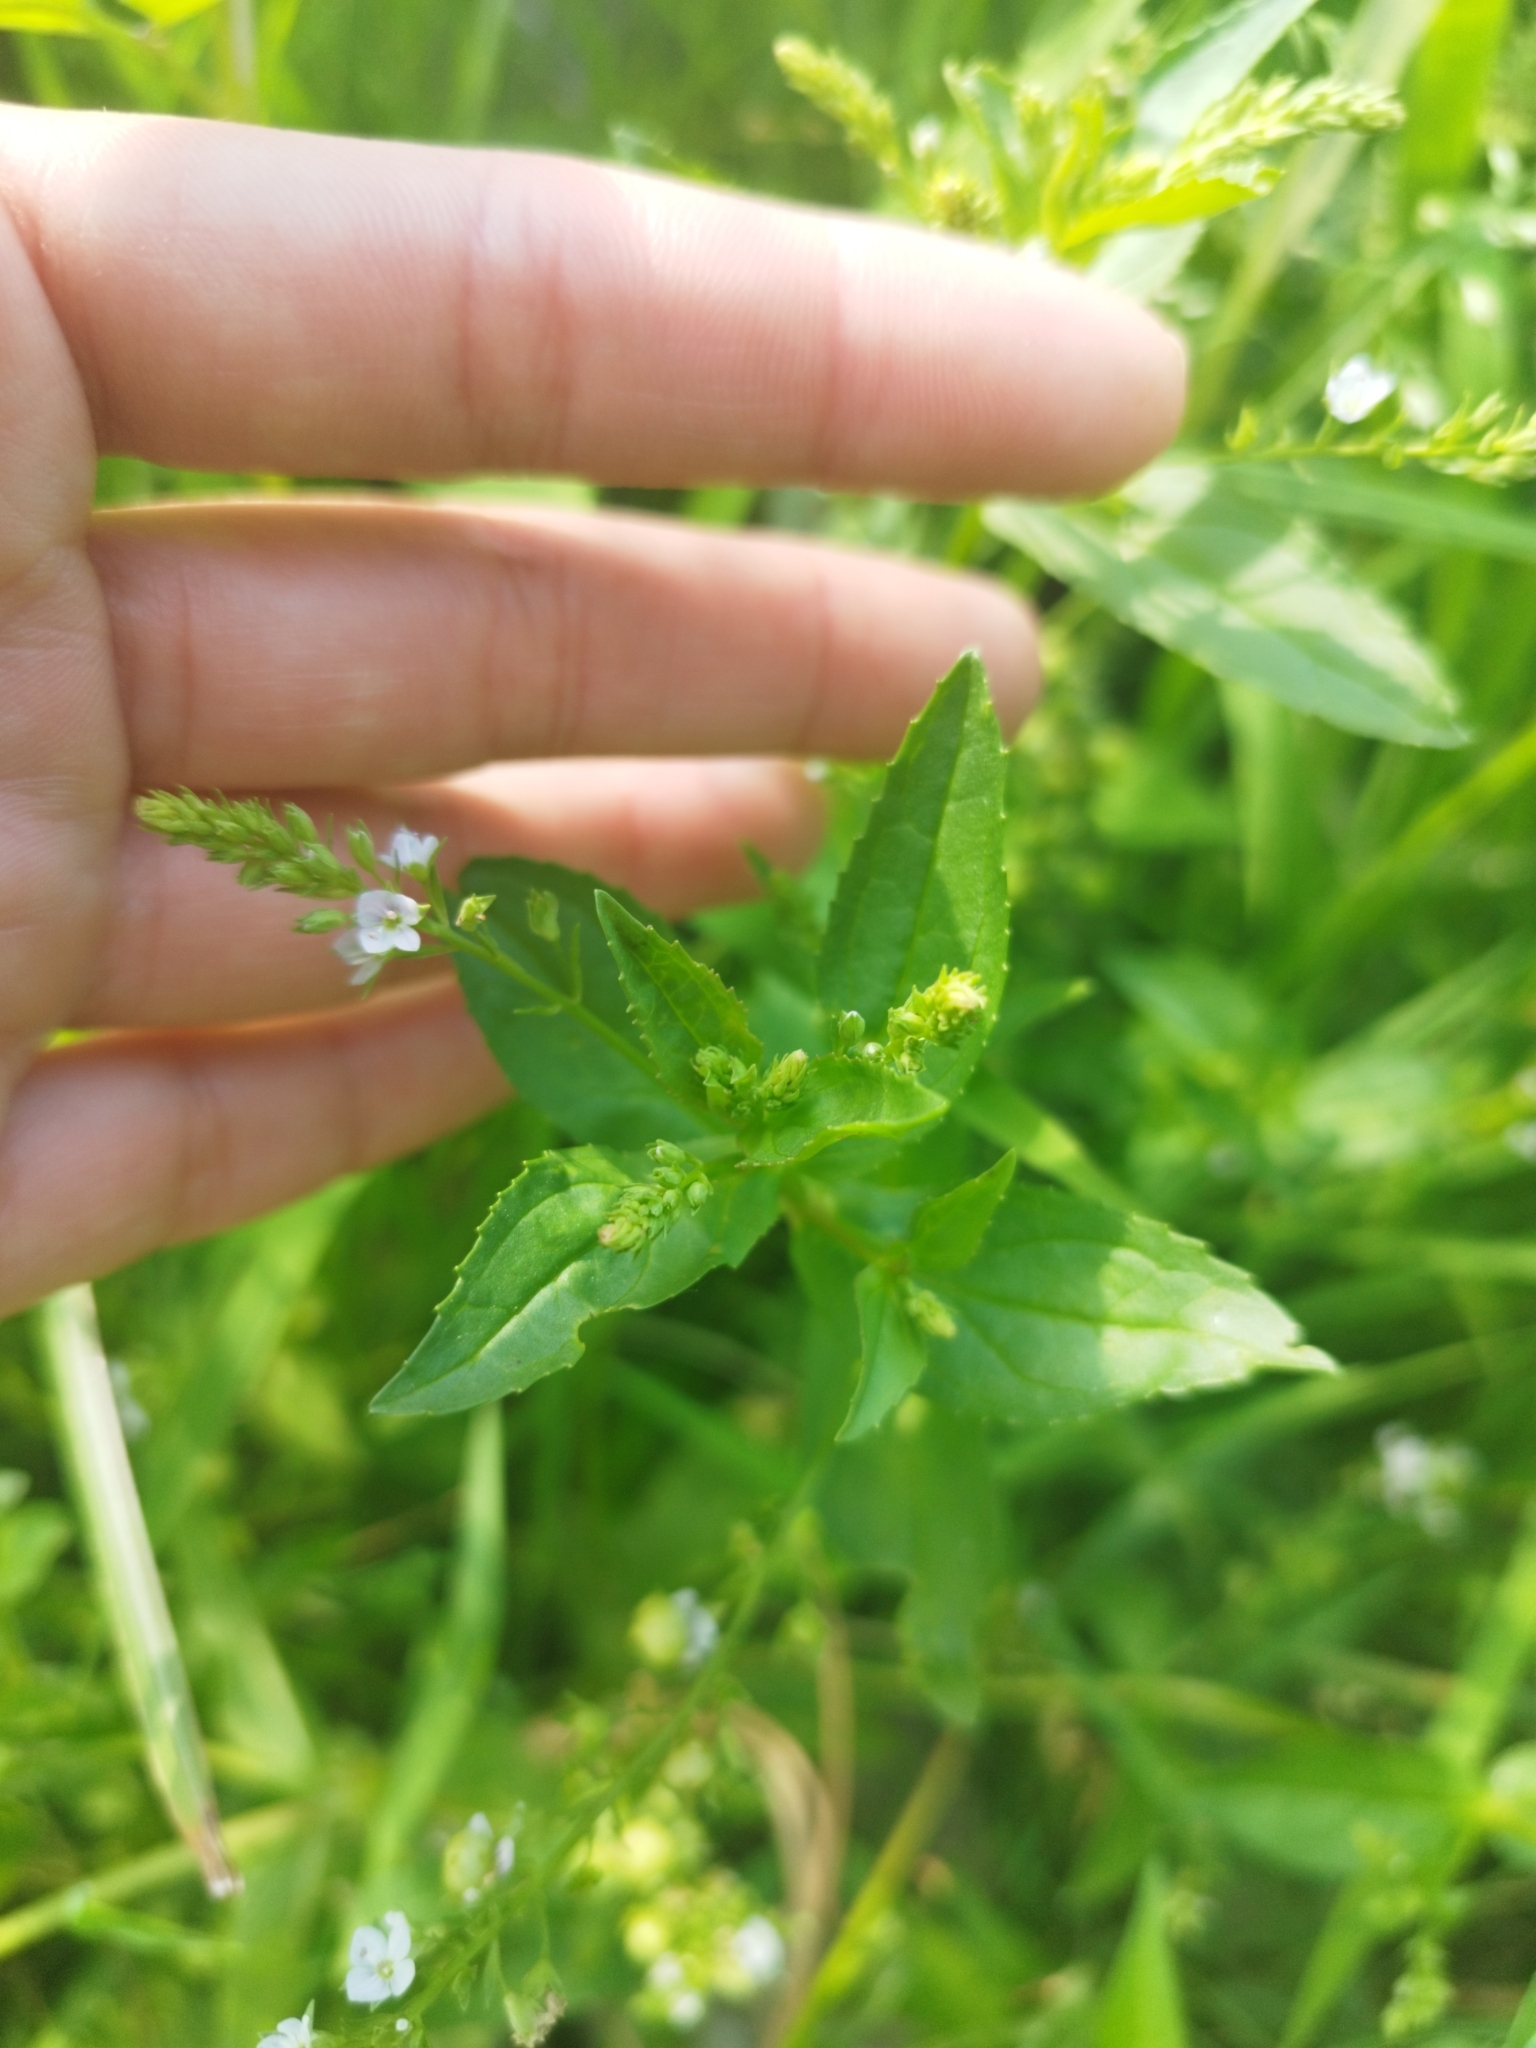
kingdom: Plantae
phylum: Tracheophyta
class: Magnoliopsida
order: Lamiales
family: Plantaginaceae
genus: Veronica
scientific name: Veronica anagallis-aquatica
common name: Water speedwell
